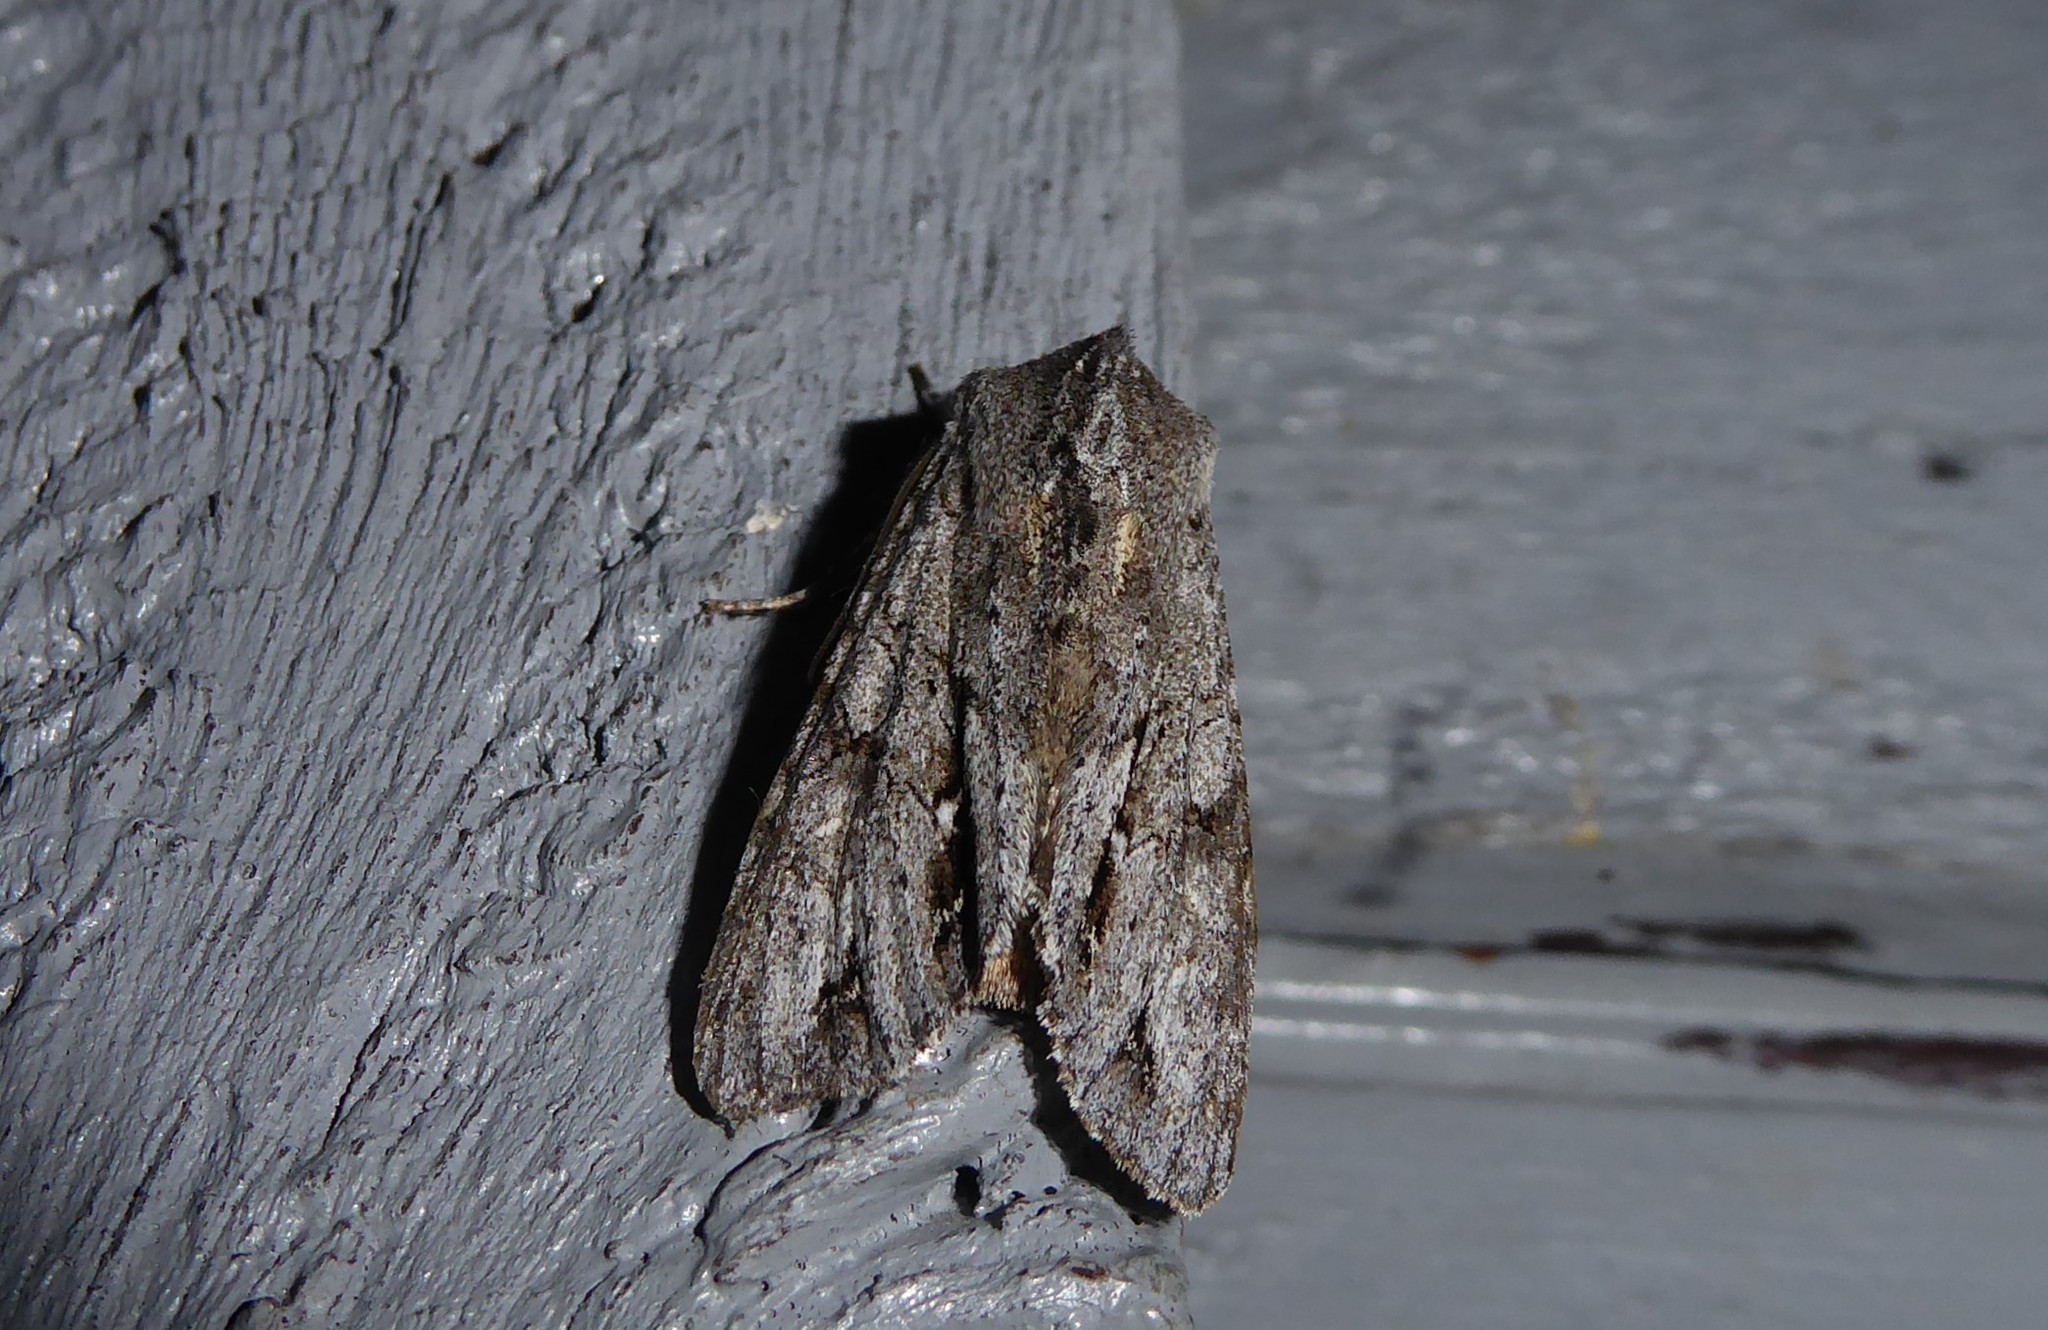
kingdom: Animalia
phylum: Arthropoda
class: Insecta
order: Lepidoptera
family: Noctuidae
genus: Ichneutica
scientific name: Ichneutica
